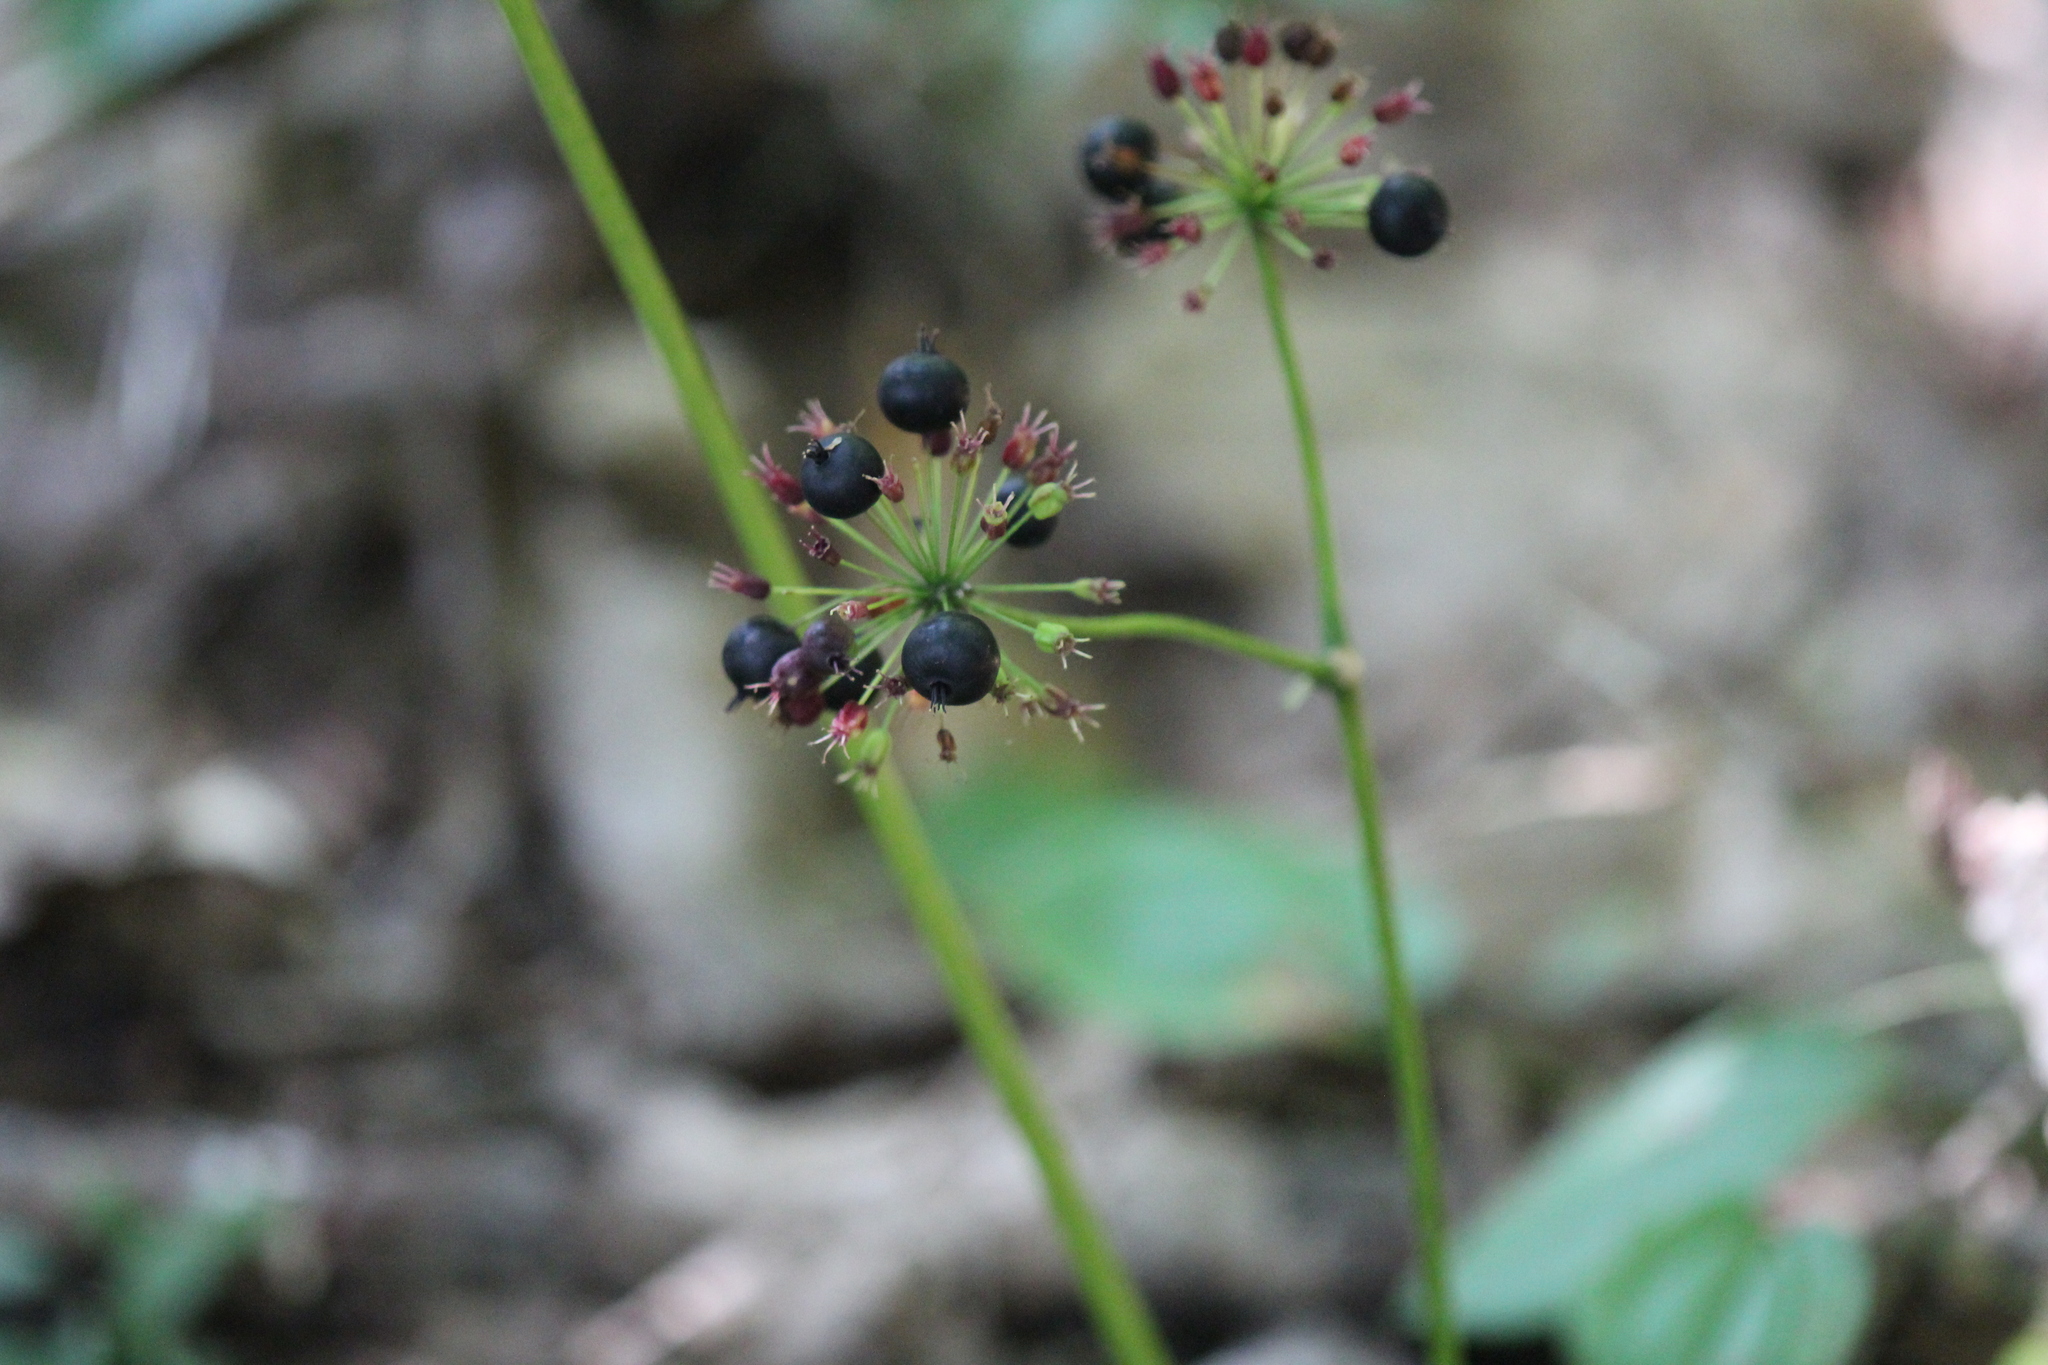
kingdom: Plantae
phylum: Tracheophyta
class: Magnoliopsida
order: Apiales
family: Araliaceae
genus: Aralia
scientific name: Aralia nudicaulis
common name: Wild sarsaparilla
